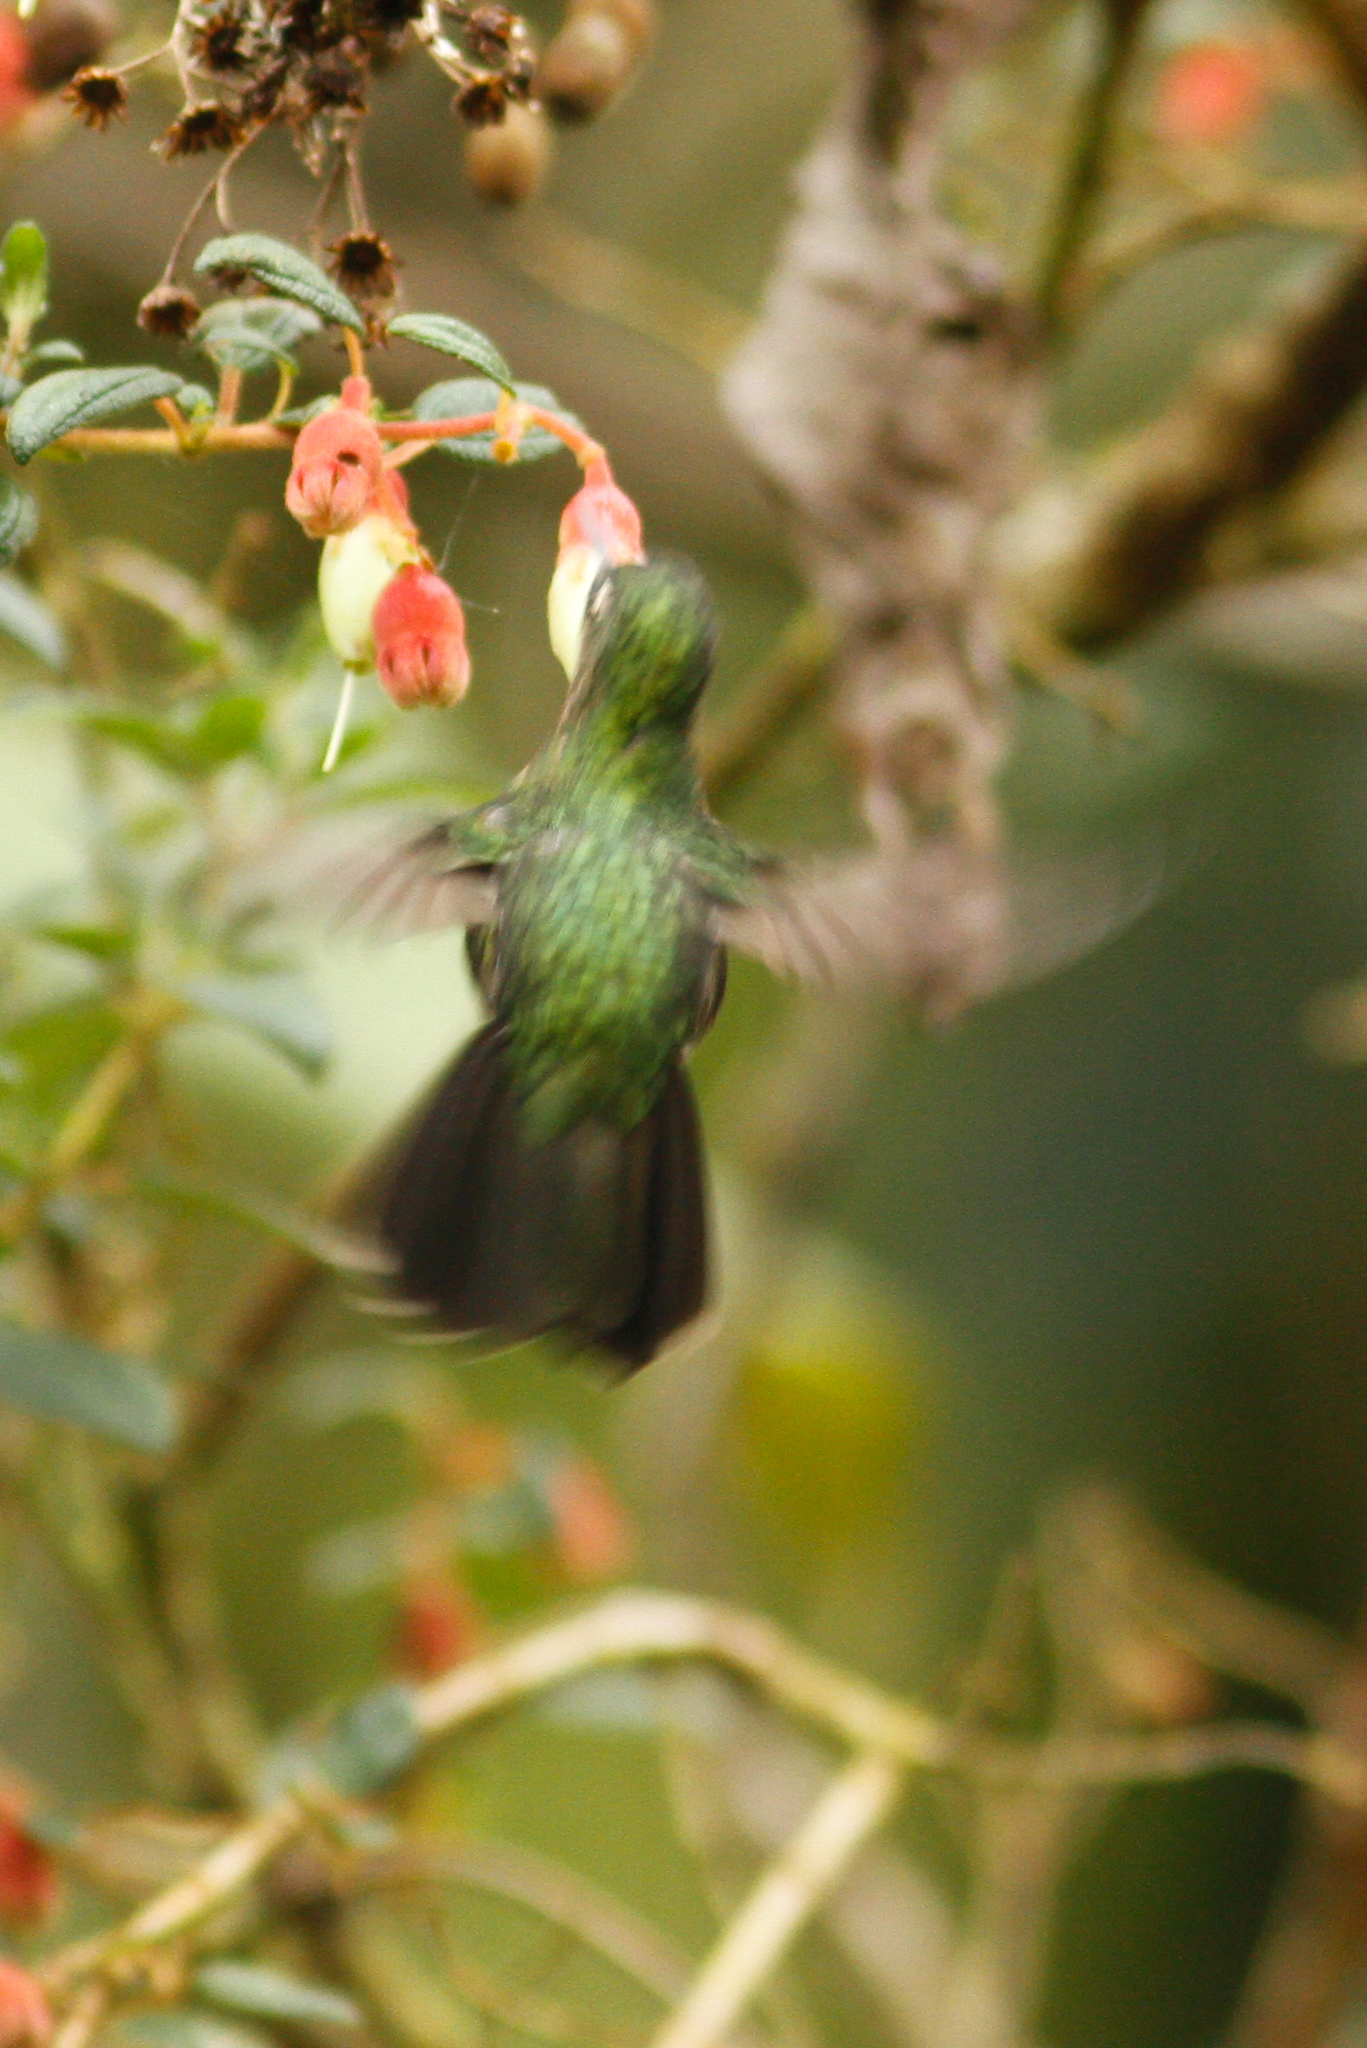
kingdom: Animalia
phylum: Chordata
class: Aves
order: Apodiformes
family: Trochilidae
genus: Metallura
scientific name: Metallura tyrianthina
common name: Tyrian metaltail
